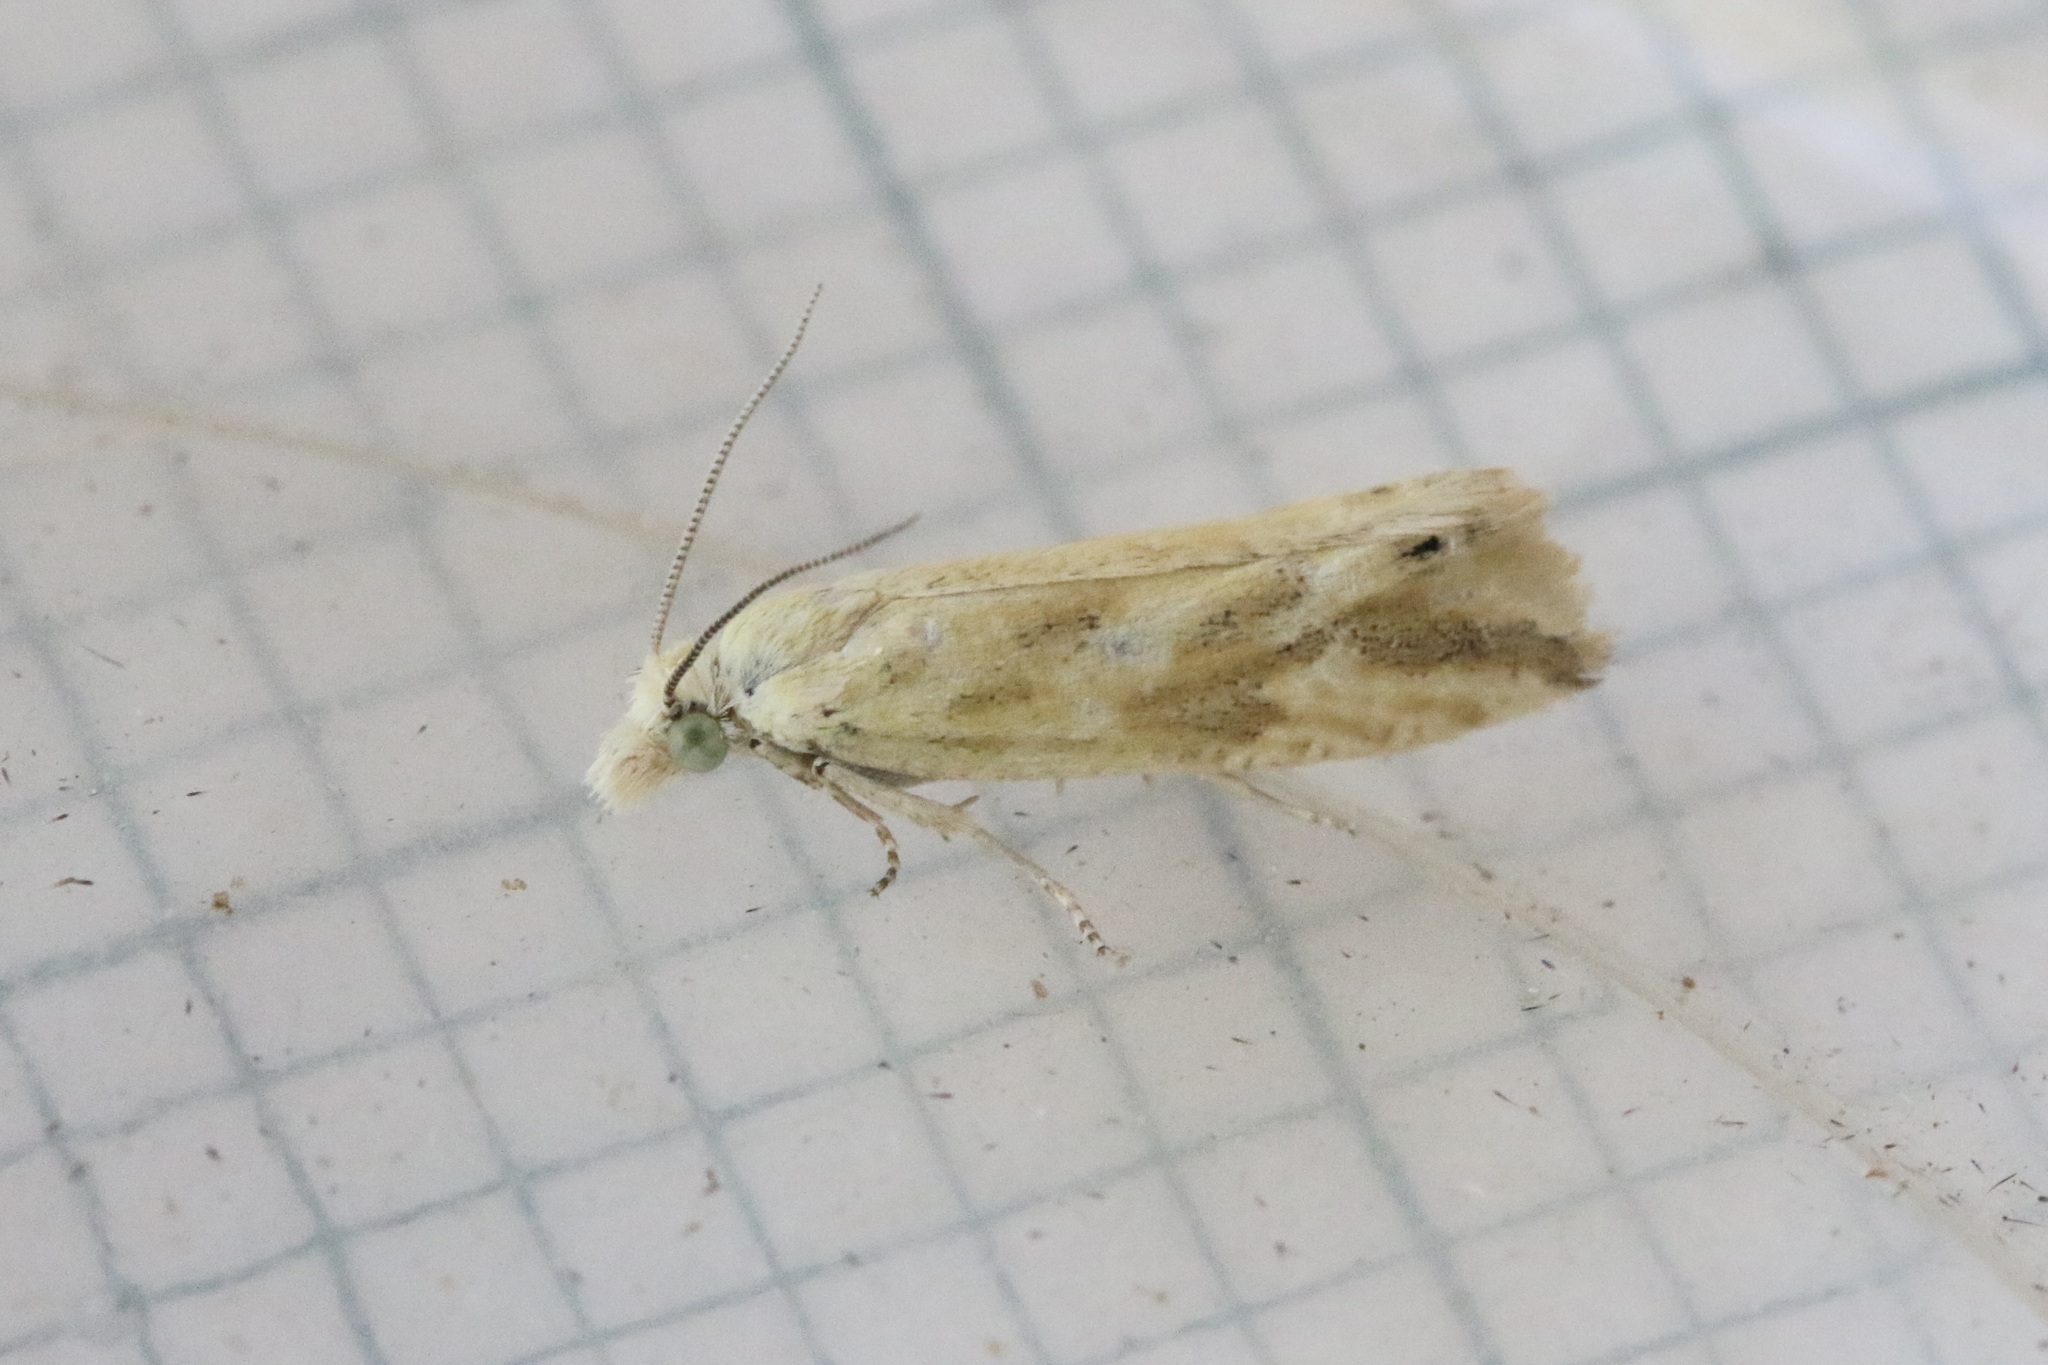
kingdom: Animalia
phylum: Arthropoda
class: Insecta
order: Lepidoptera
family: Tortricidae
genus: Thiodia
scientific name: Thiodia citrana
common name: Lemon bell
